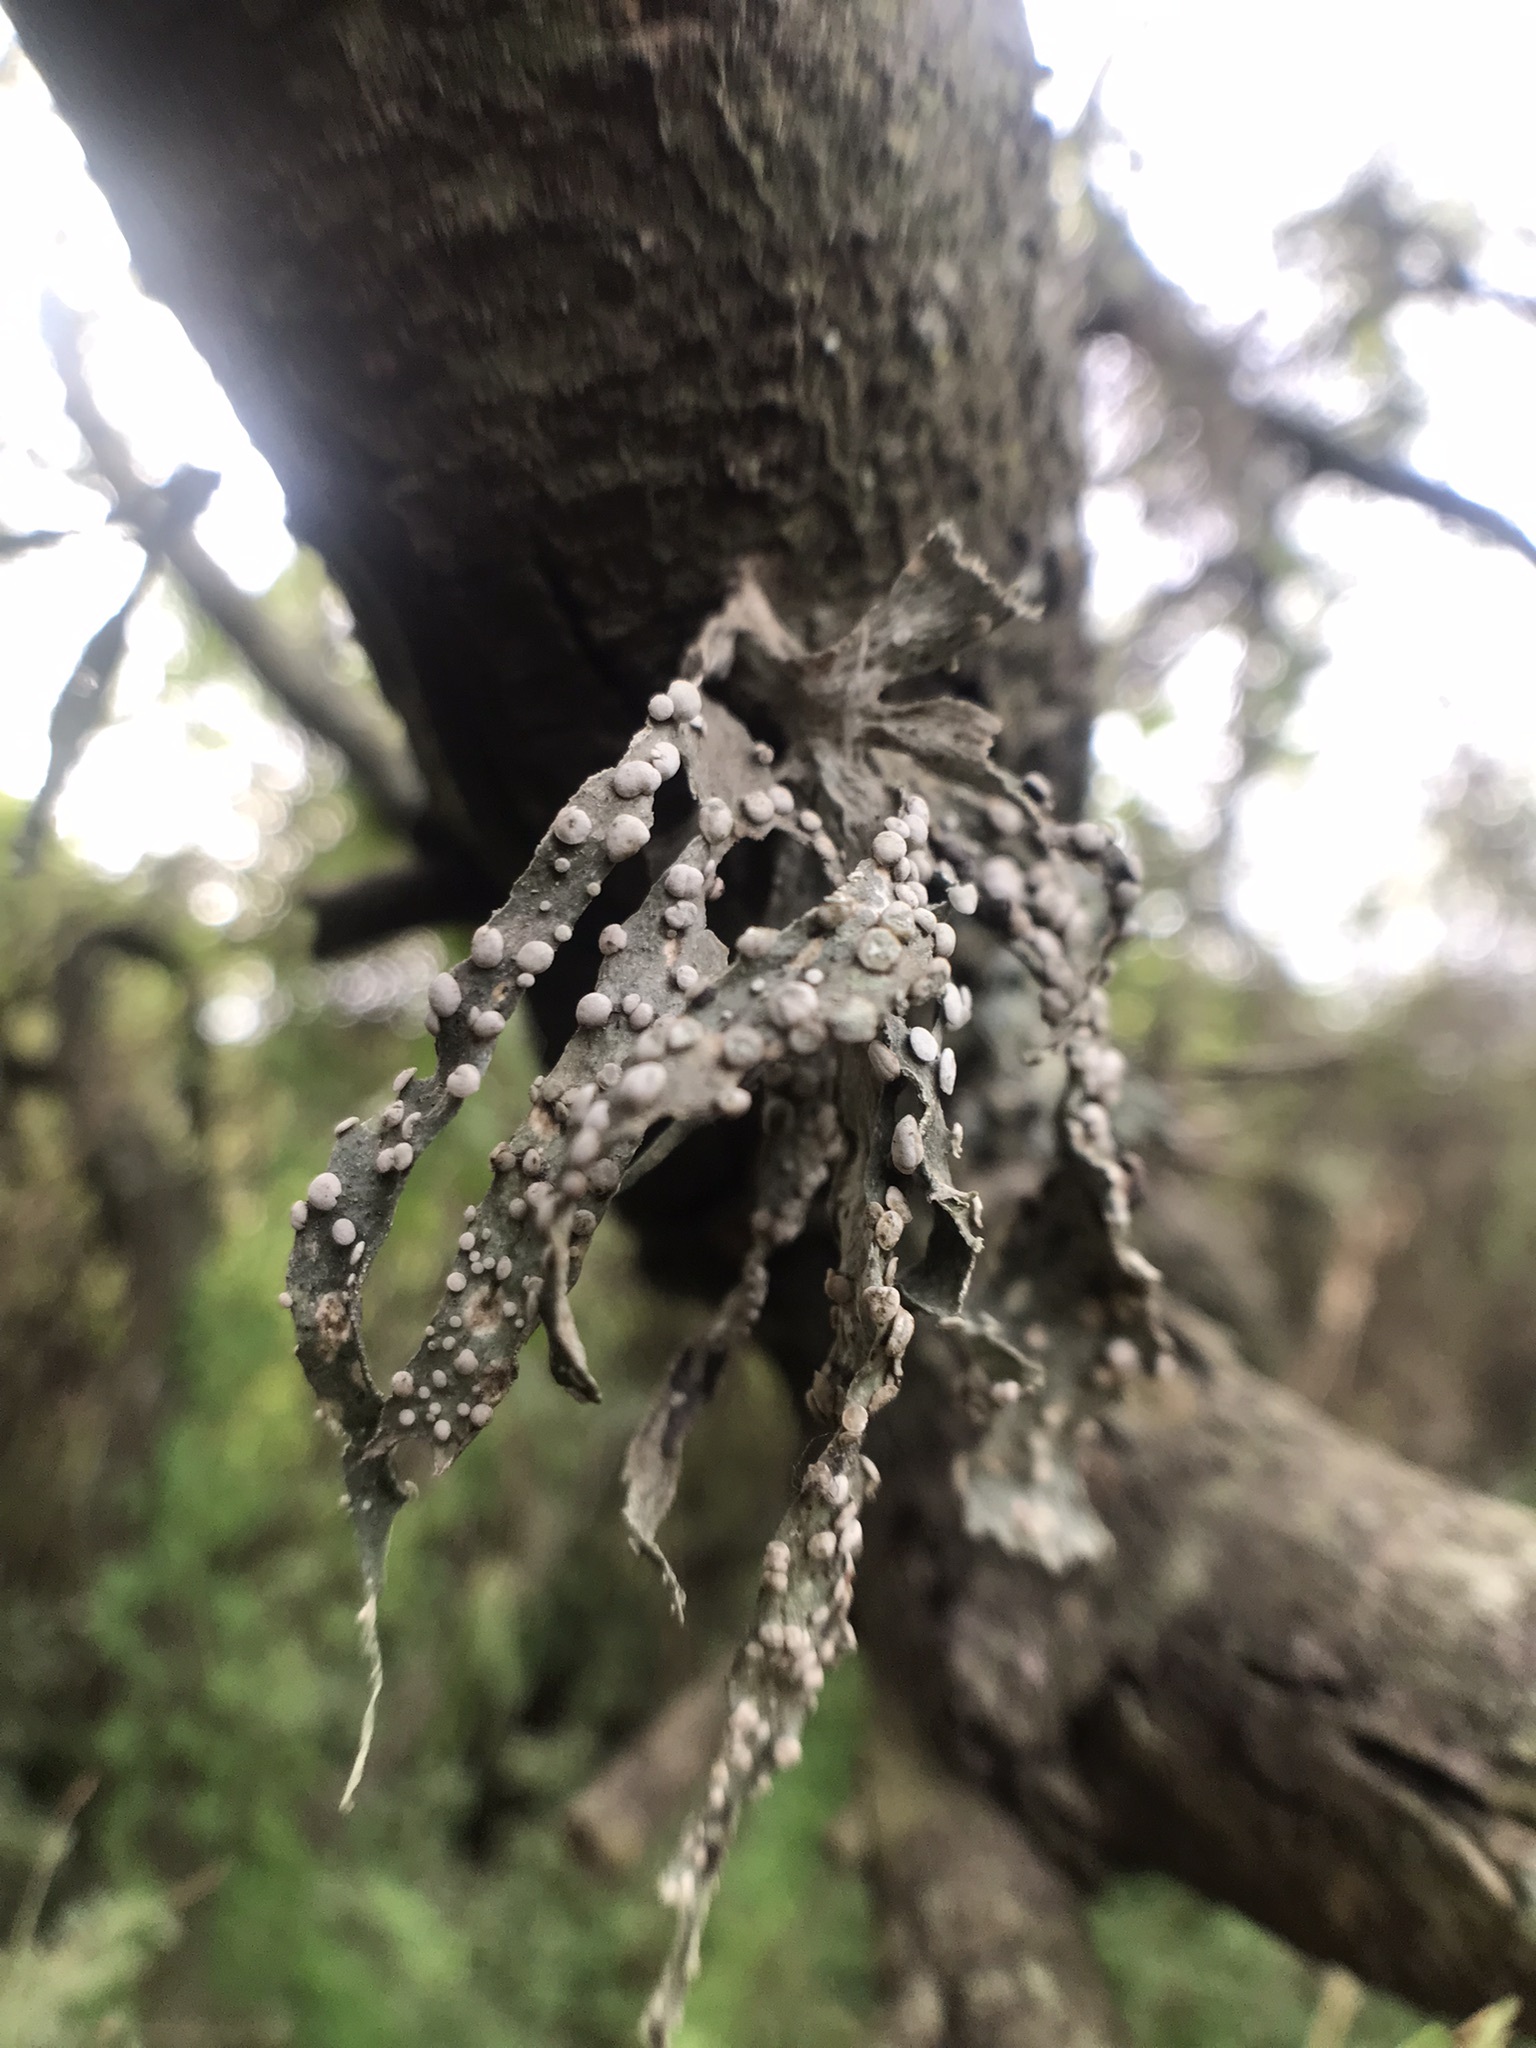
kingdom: Fungi
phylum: Ascomycota
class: Lecanoromycetes
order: Lecanorales
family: Ramalinaceae
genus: Ramalina
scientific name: Ramalina celastri
